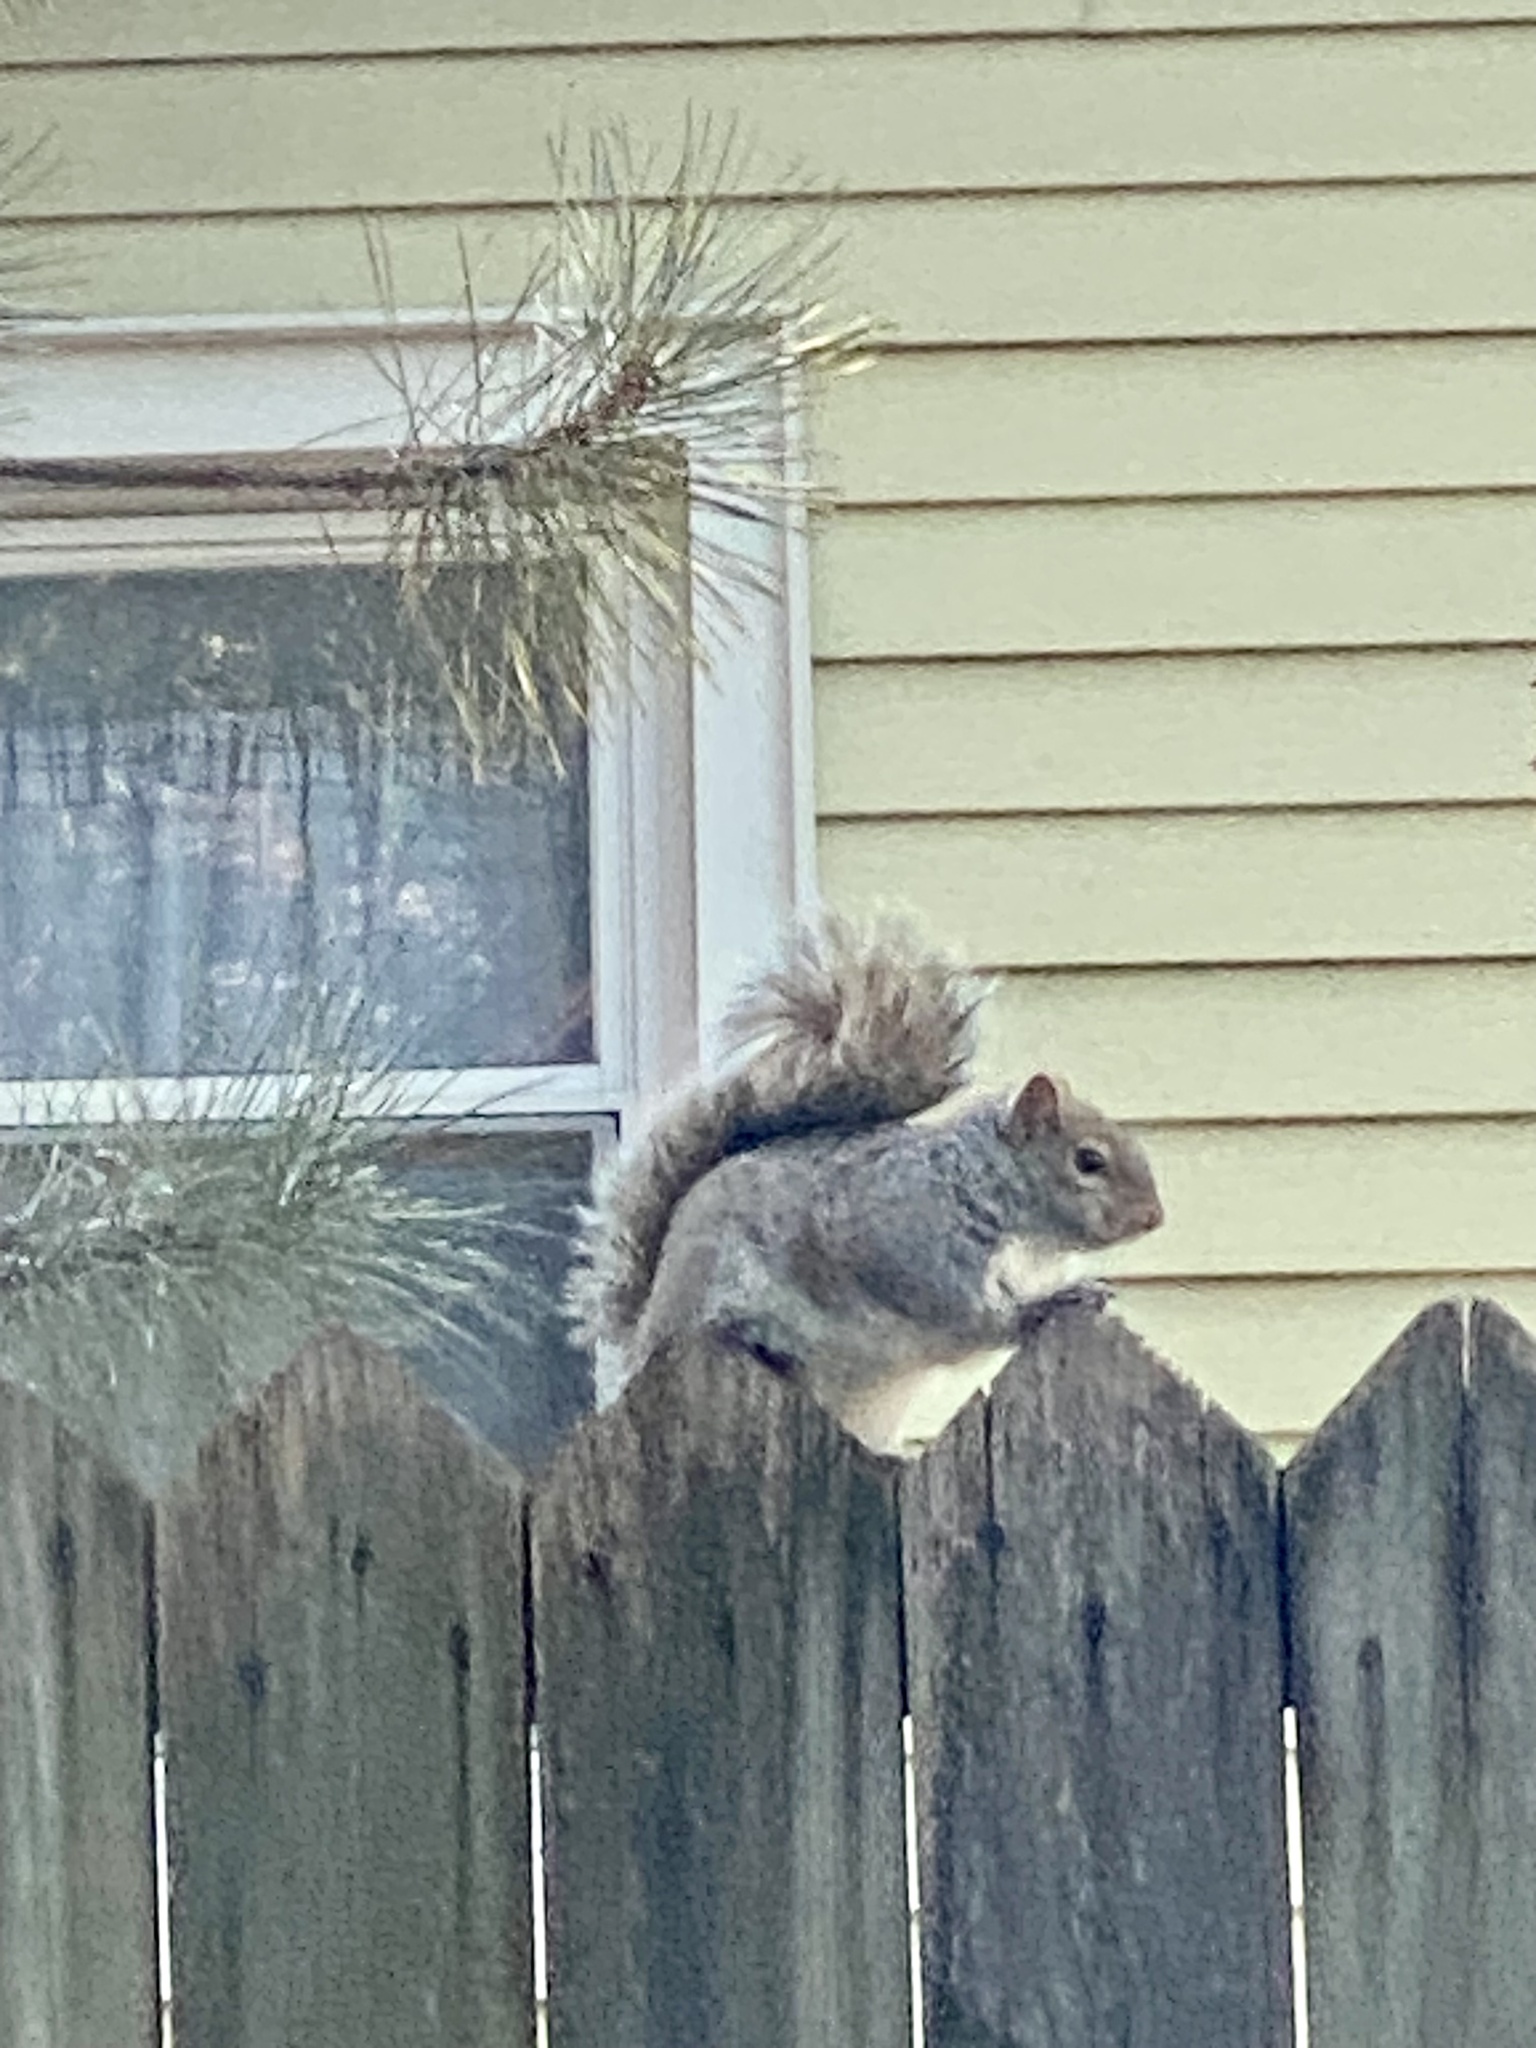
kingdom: Animalia
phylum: Chordata
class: Mammalia
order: Rodentia
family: Sciuridae
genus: Sciurus
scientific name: Sciurus carolinensis
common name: Eastern gray squirrel
